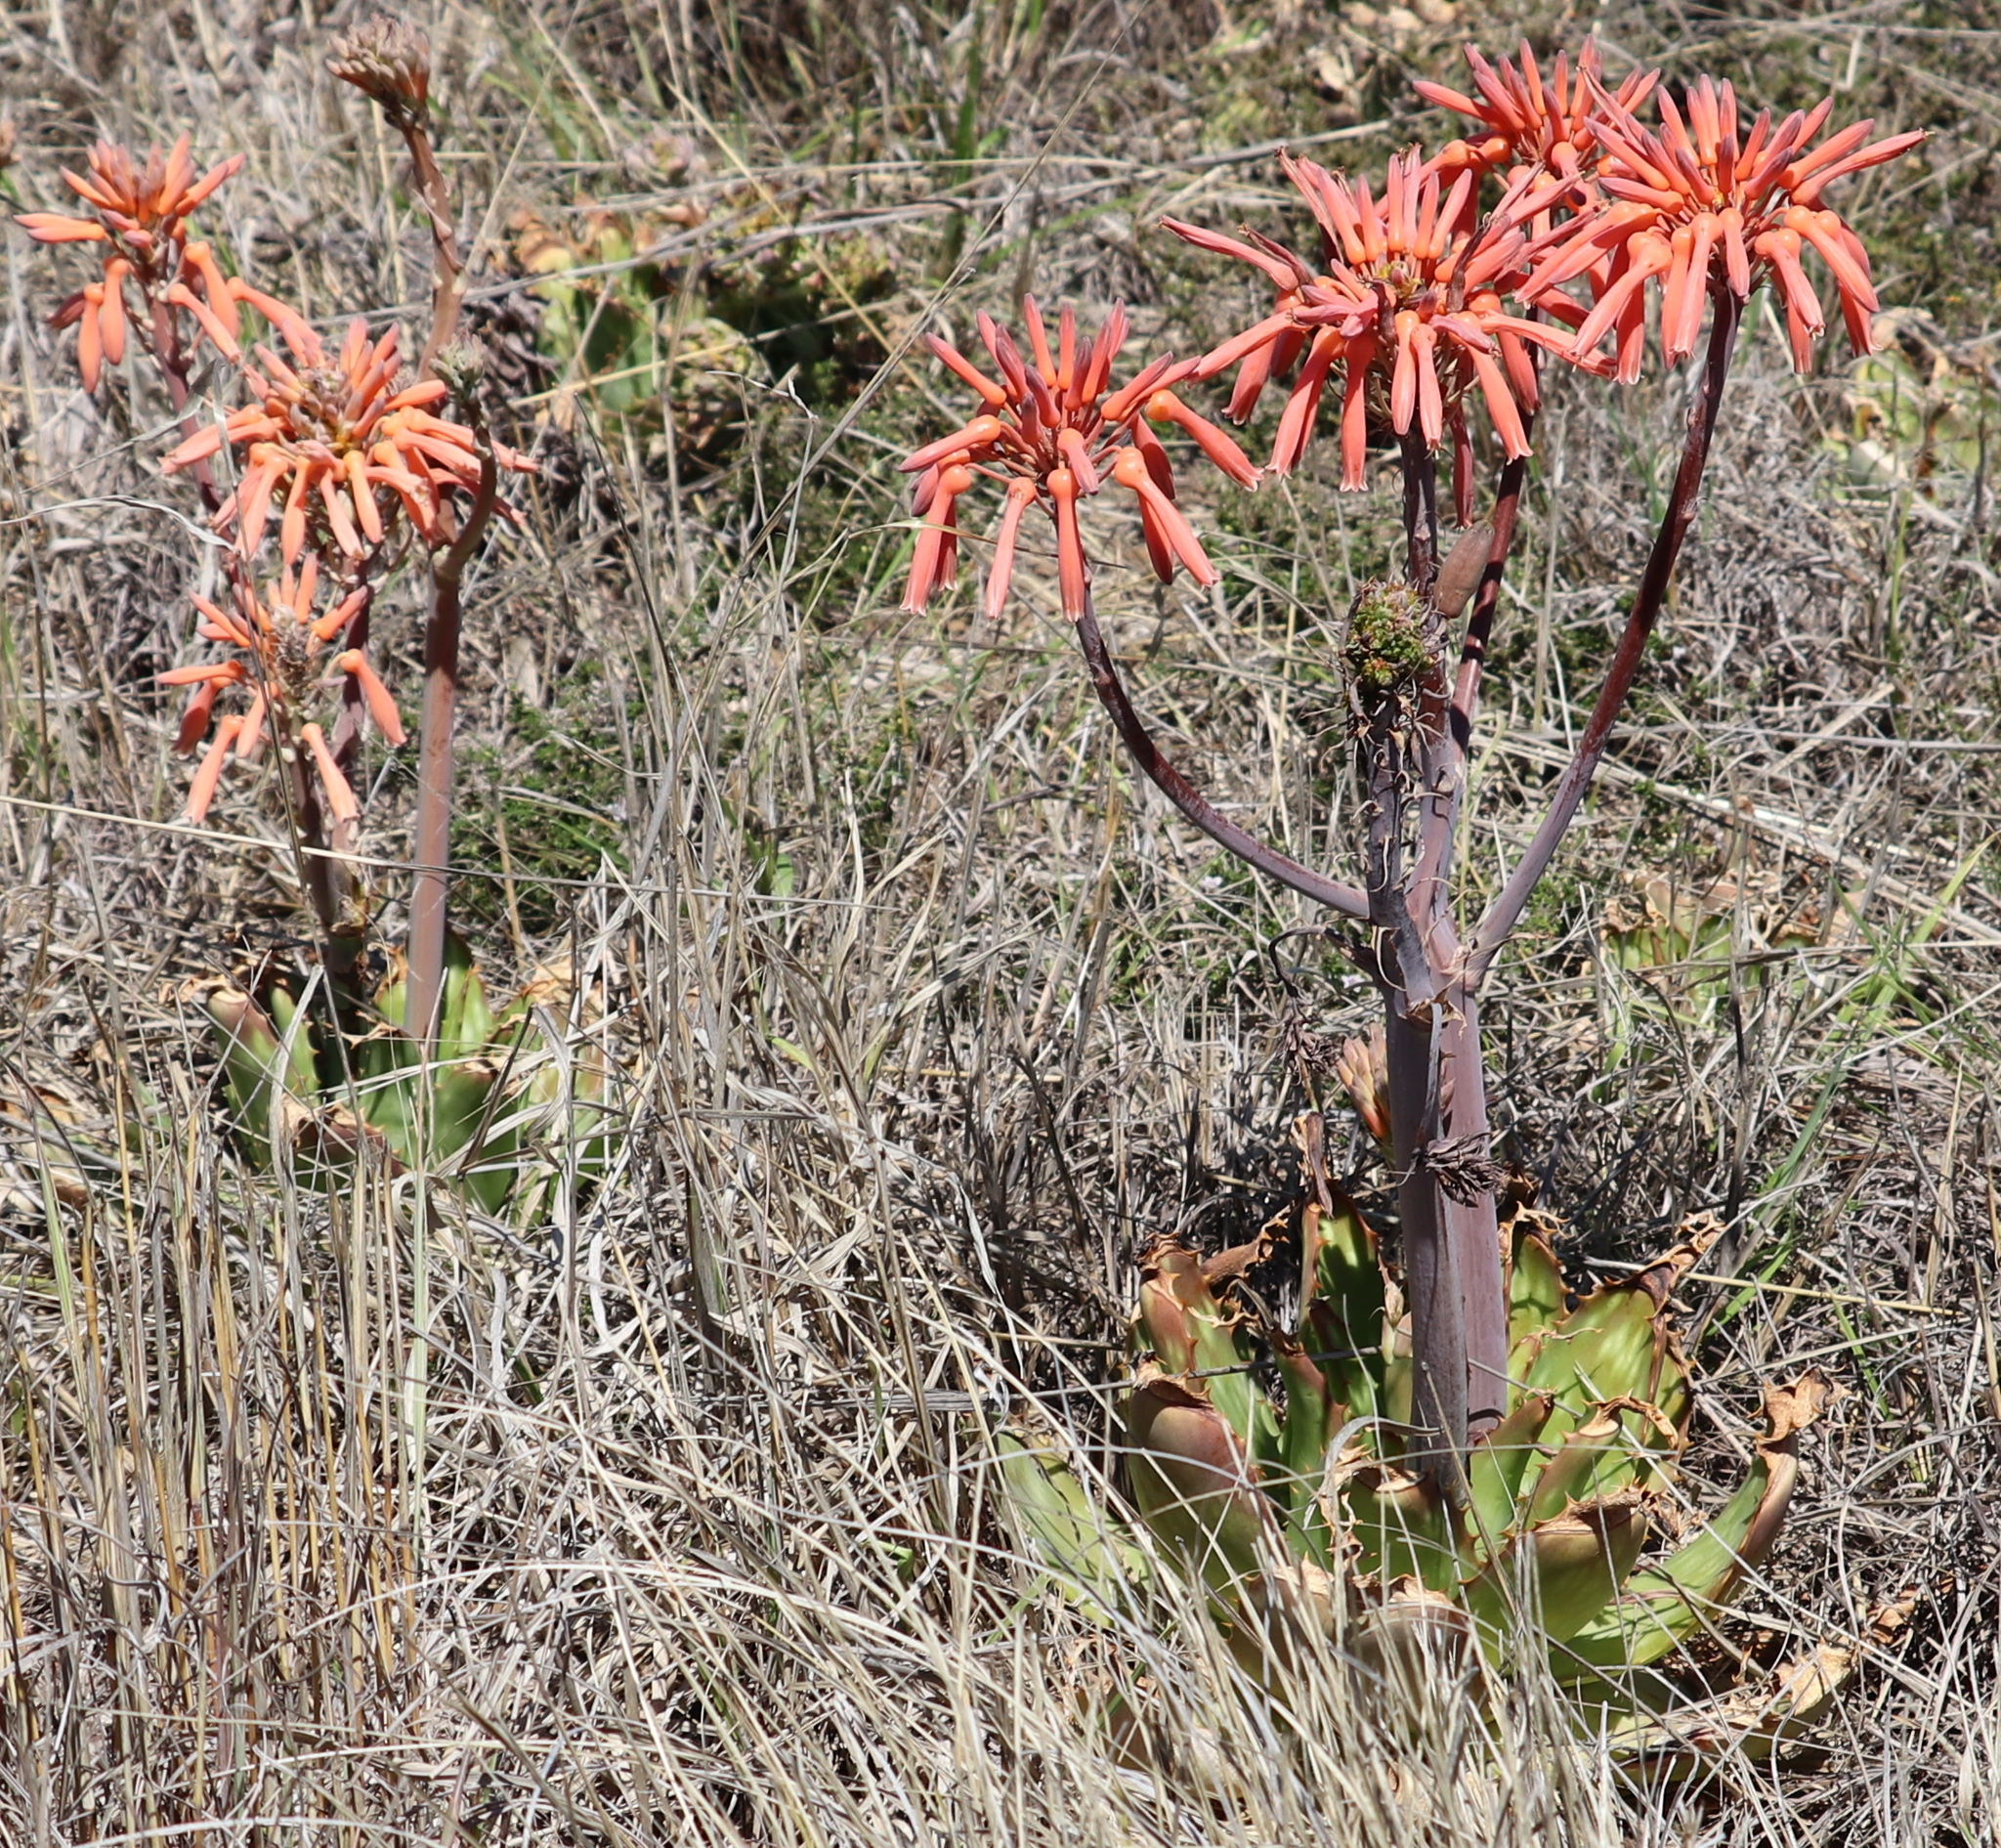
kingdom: Plantae
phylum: Tracheophyta
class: Liliopsida
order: Asparagales
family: Asphodelaceae
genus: Aloe
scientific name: Aloe maculata
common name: Broadleaf aloe
